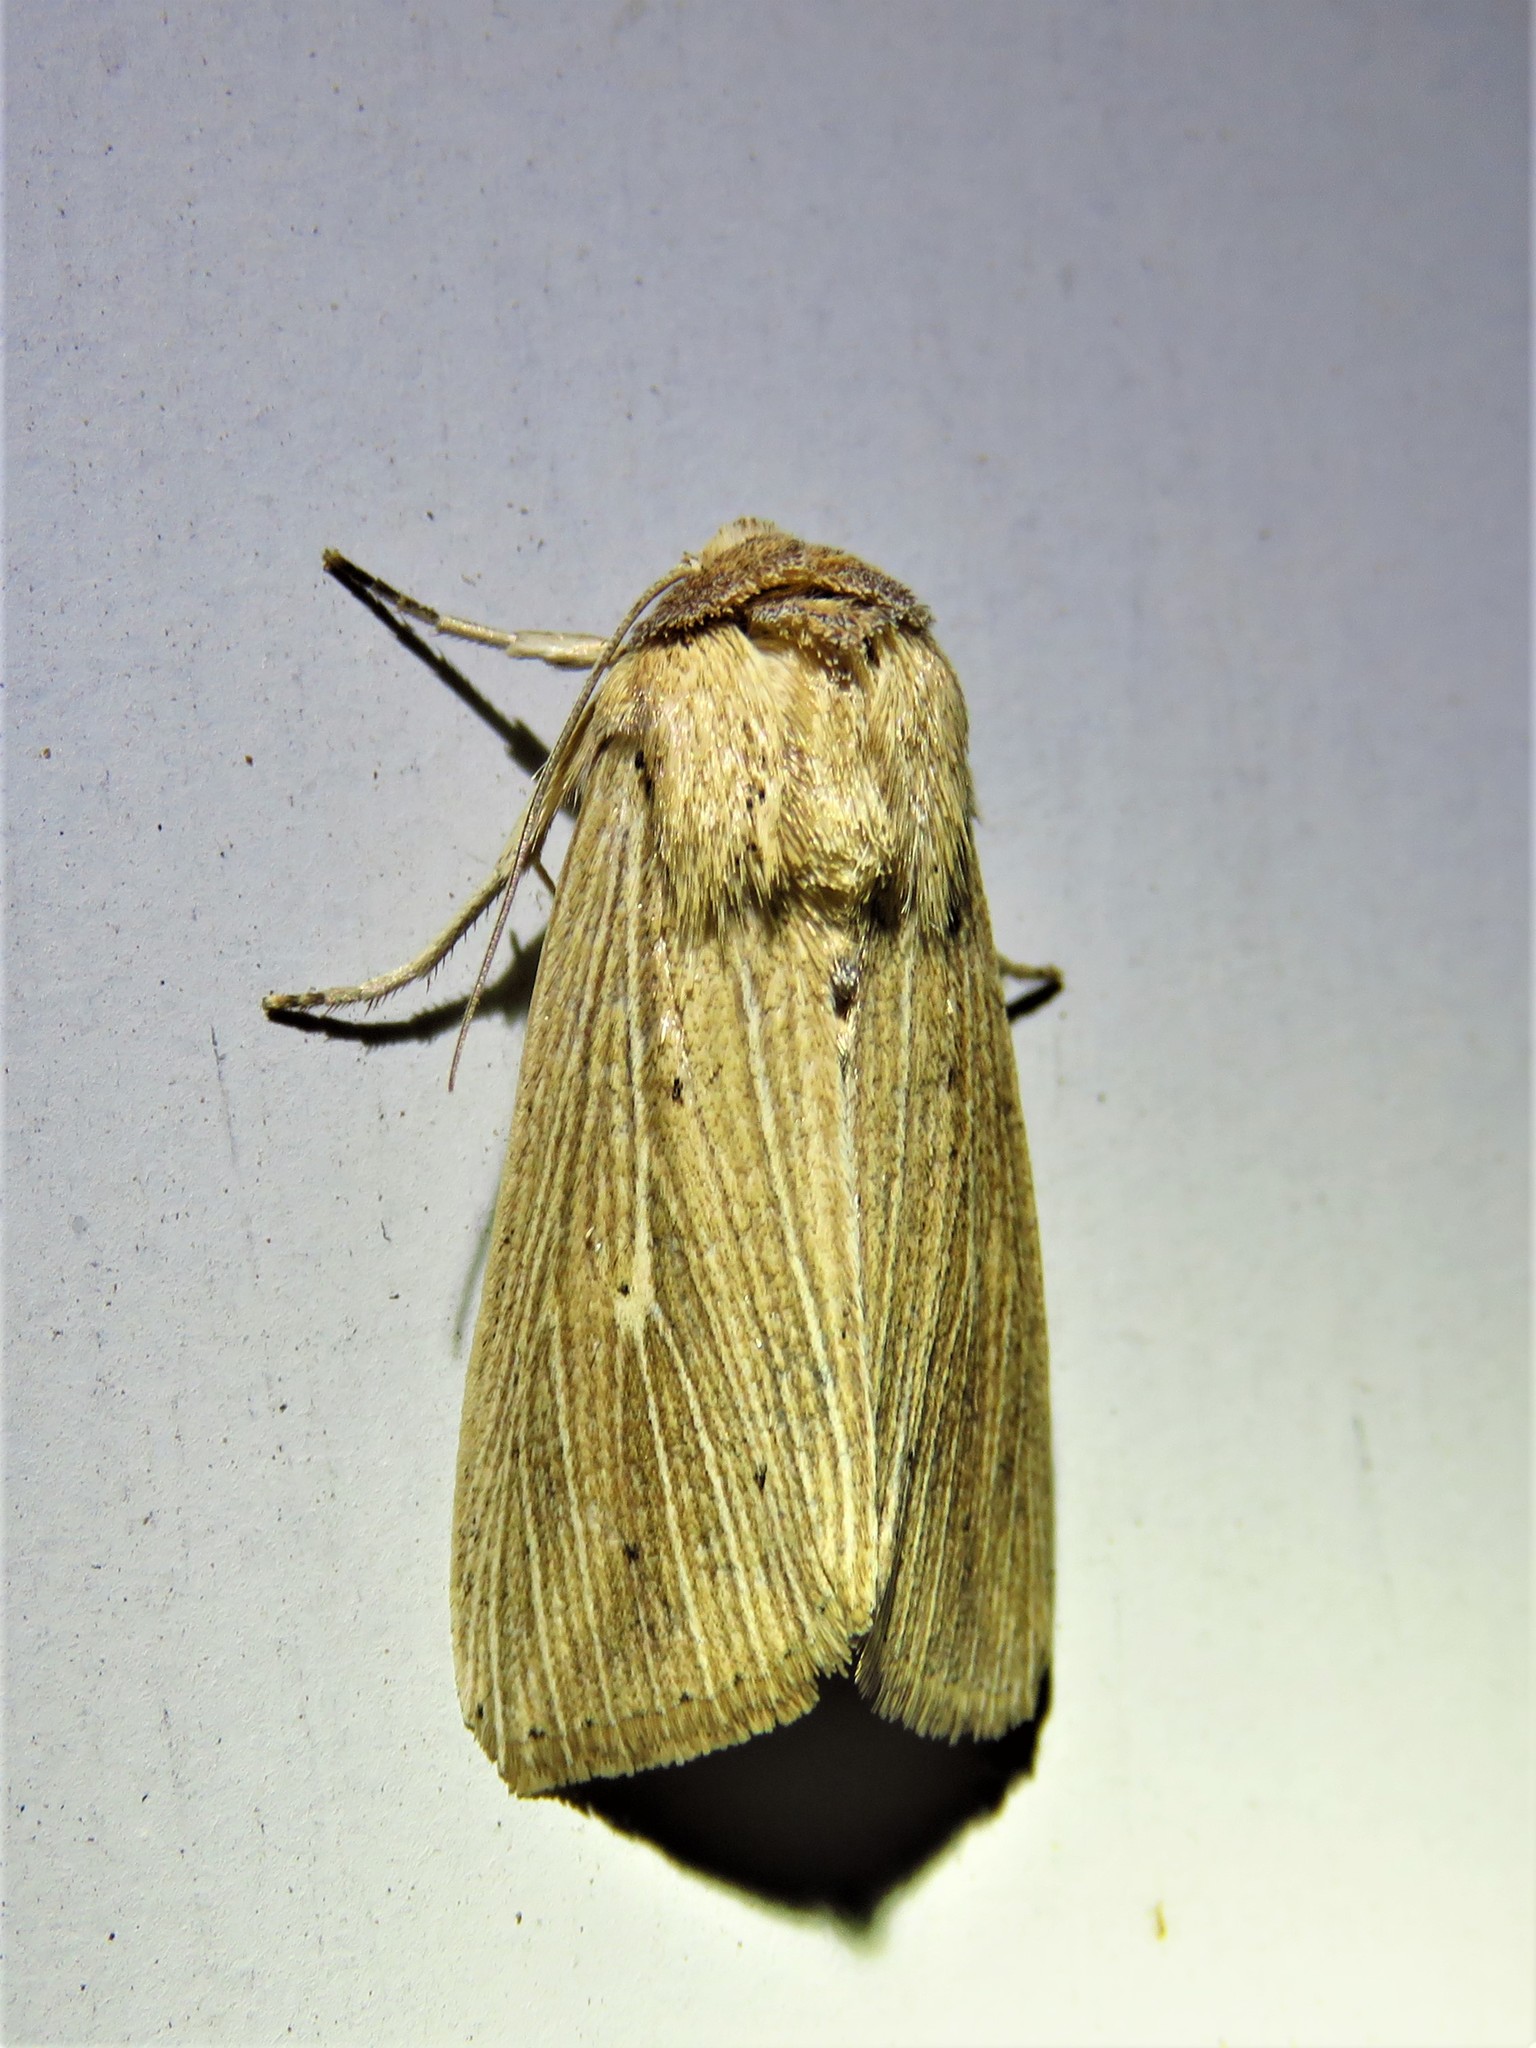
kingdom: Animalia
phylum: Arthropoda
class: Insecta
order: Lepidoptera
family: Noctuidae
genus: Leucania
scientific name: Leucania adjuta
